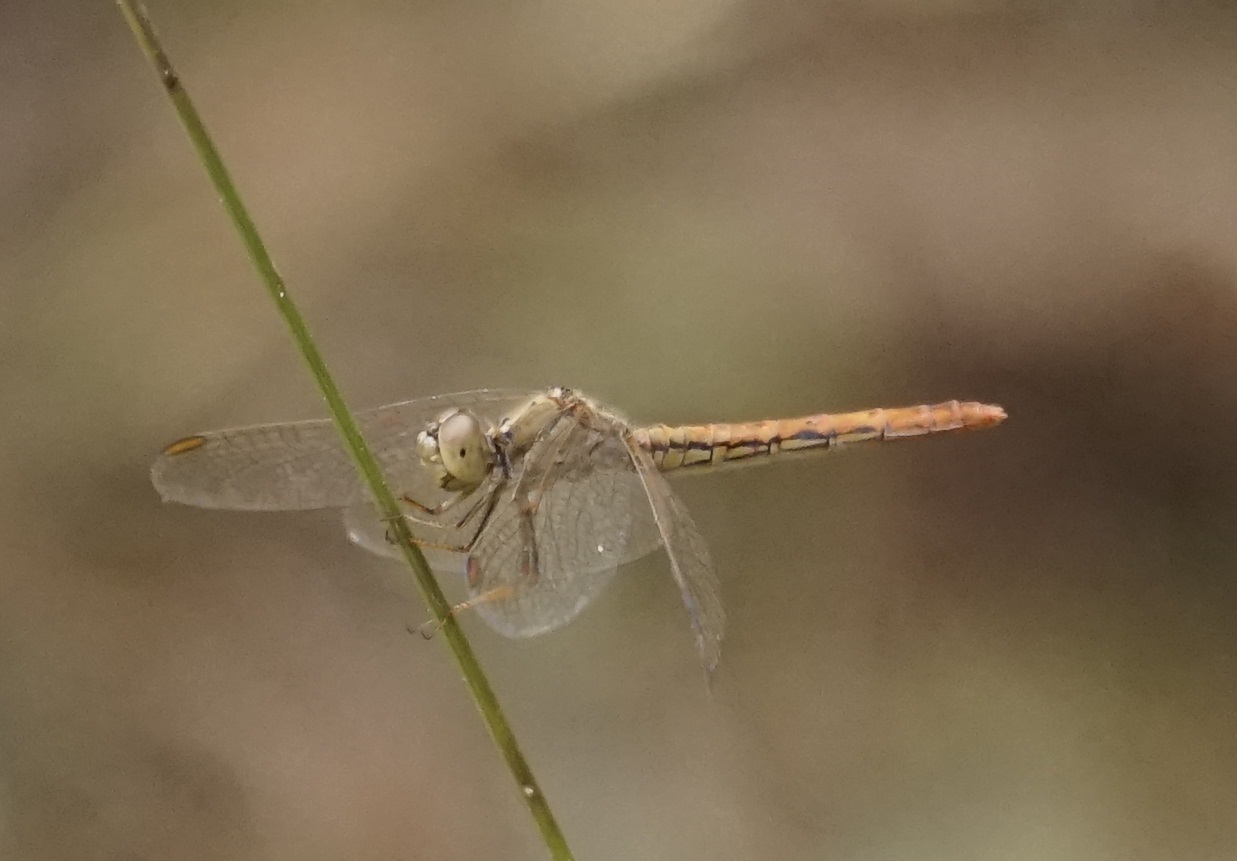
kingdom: Animalia
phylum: Arthropoda
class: Insecta
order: Odonata
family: Libellulidae
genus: Diplacodes
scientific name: Diplacodes haematodes
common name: Scarlet percher
